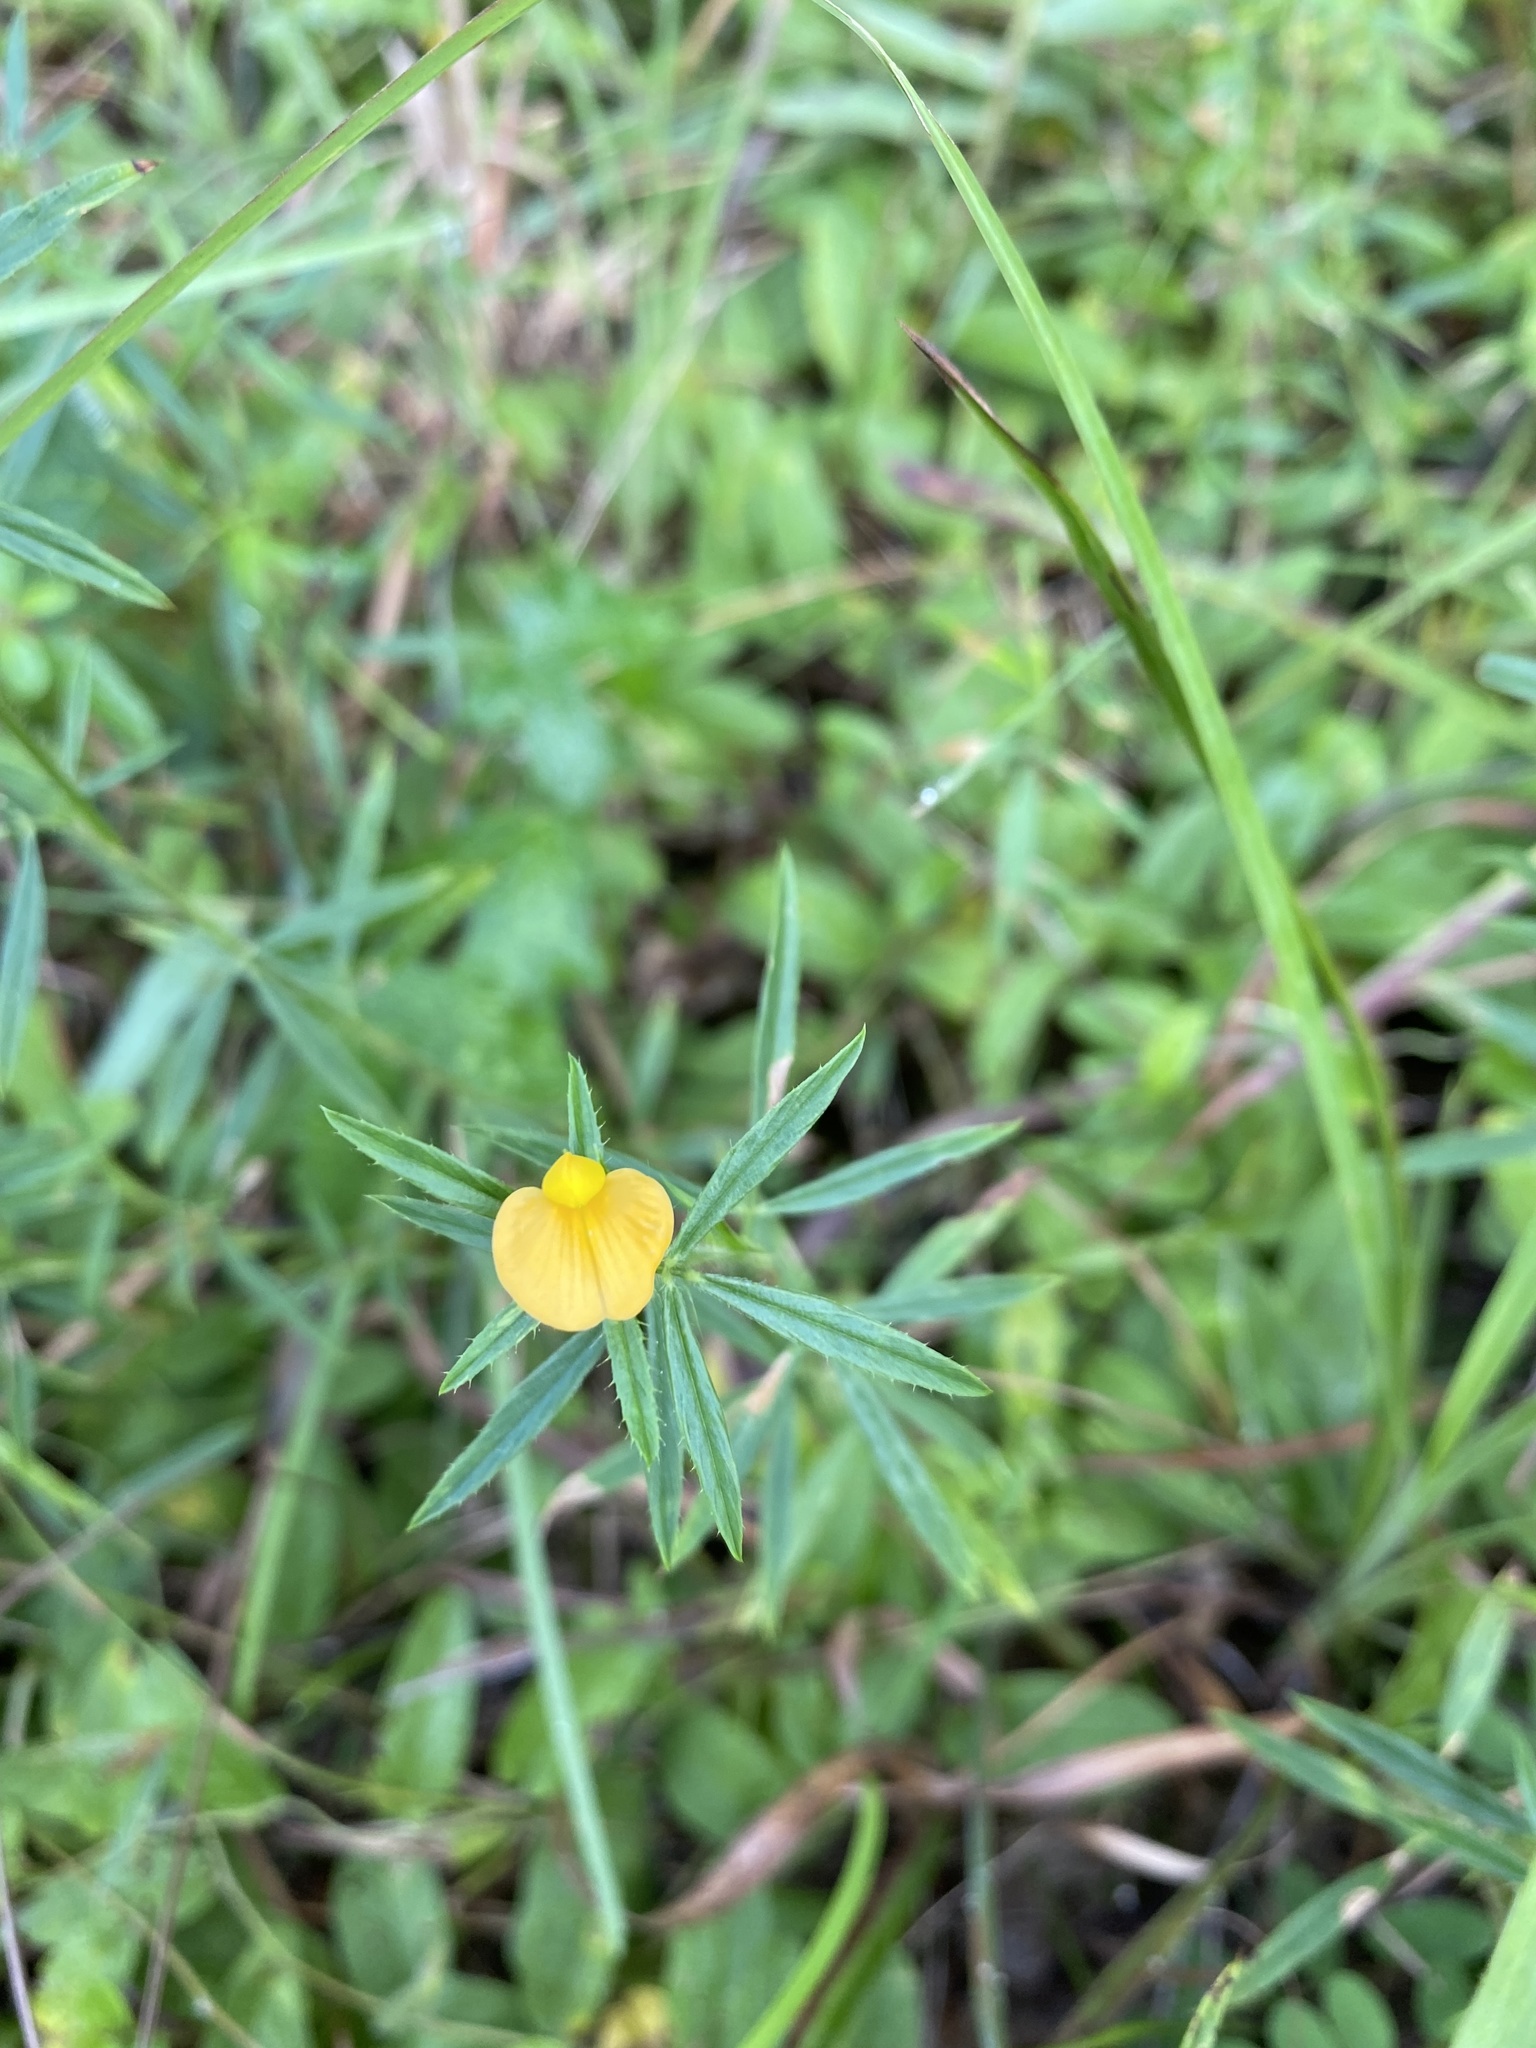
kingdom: Plantae
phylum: Tracheophyta
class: Magnoliopsida
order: Fabales
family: Fabaceae
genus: Stylosanthes
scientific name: Stylosanthes biflora
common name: Two-flower pencil-flower
